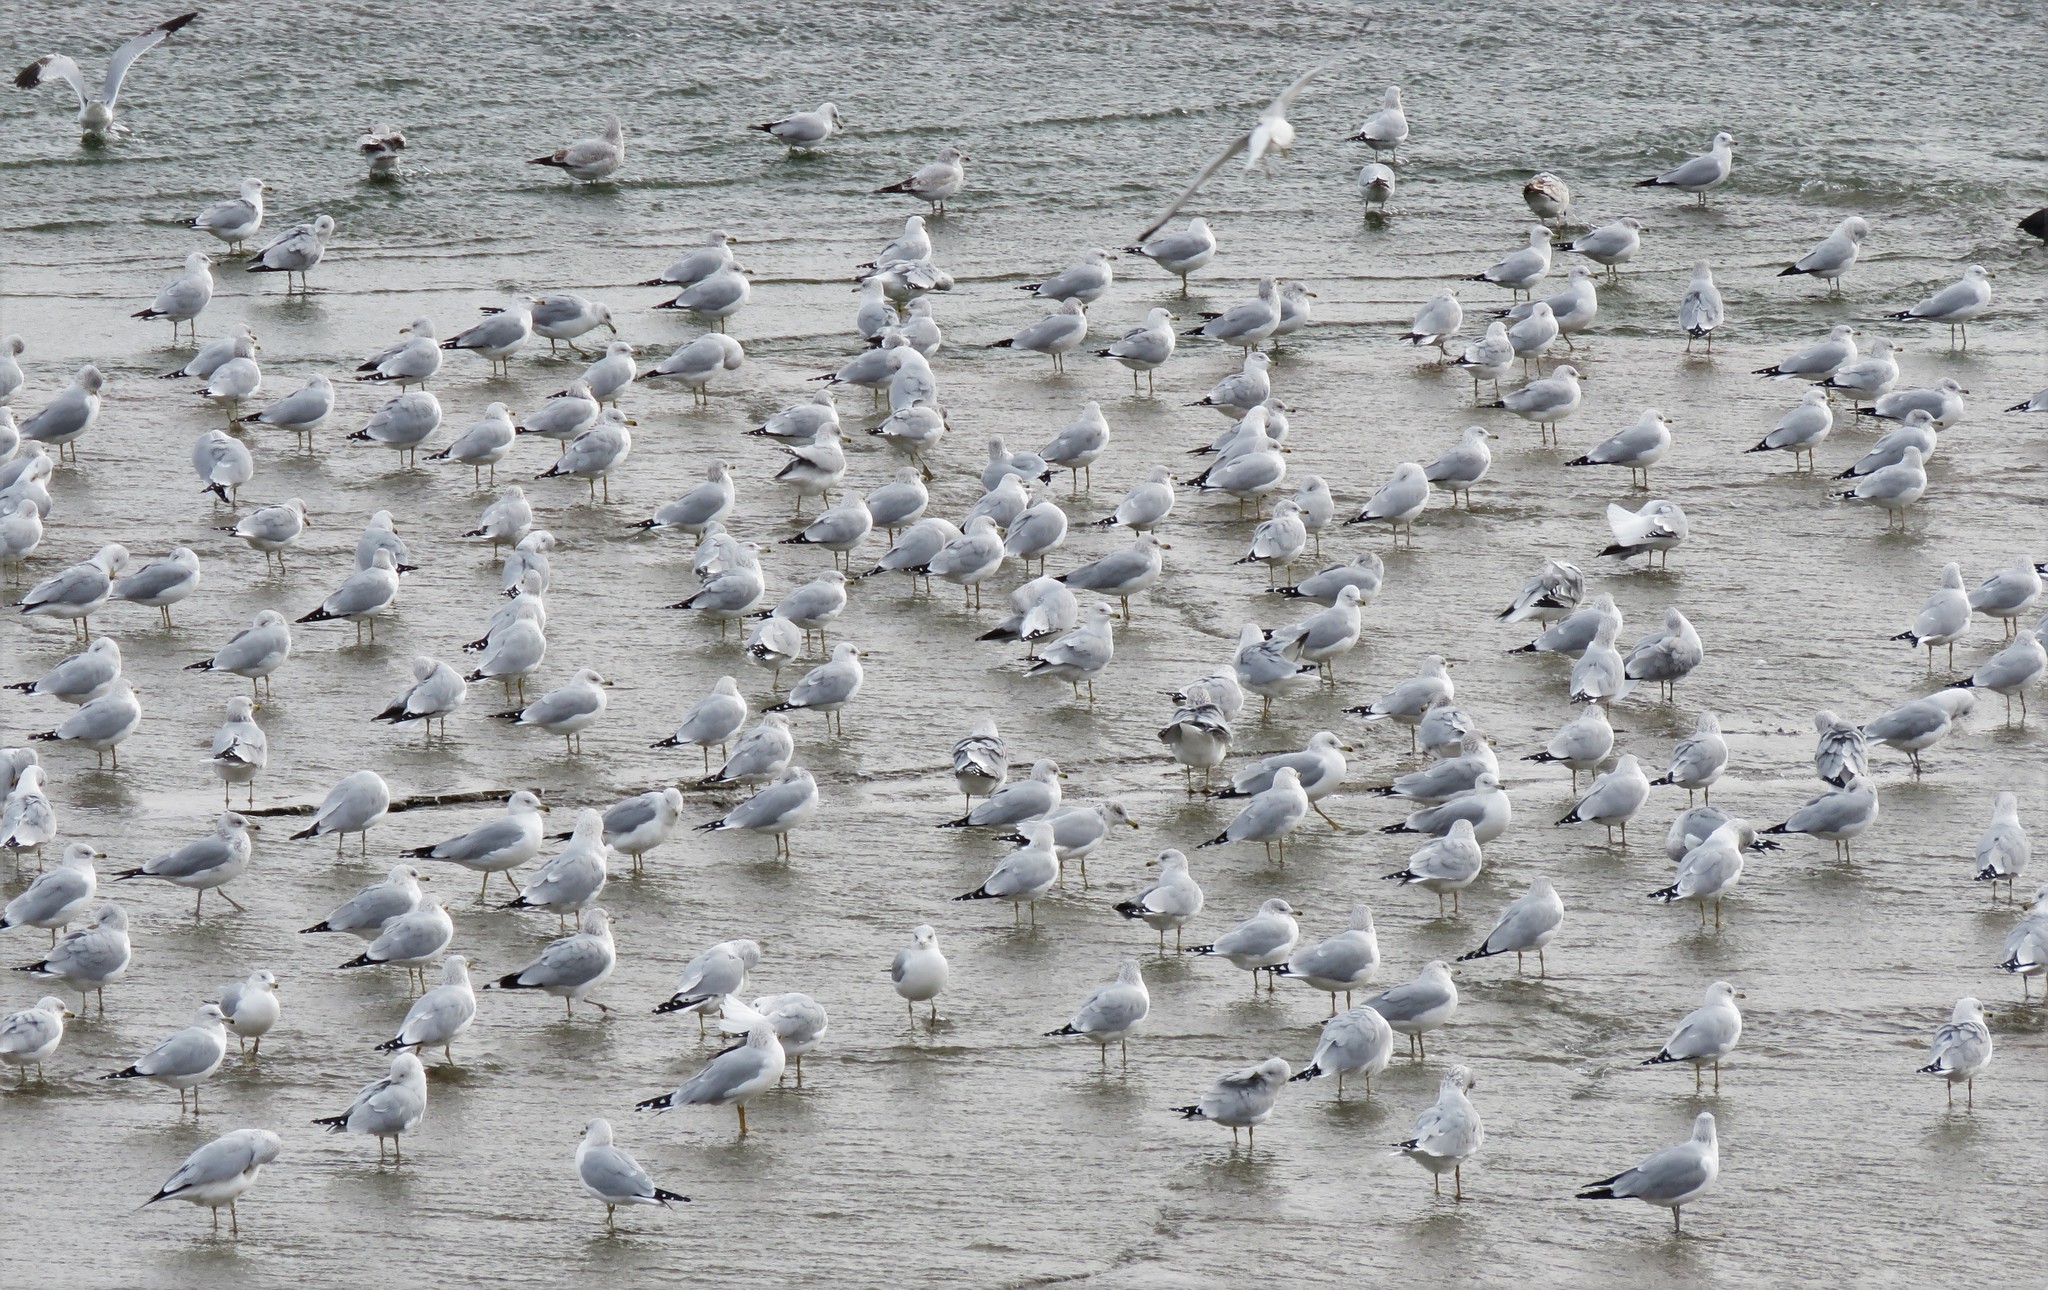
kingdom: Animalia
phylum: Chordata
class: Aves
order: Charadriiformes
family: Laridae
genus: Larus
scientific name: Larus delawarensis
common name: Ring-billed gull
